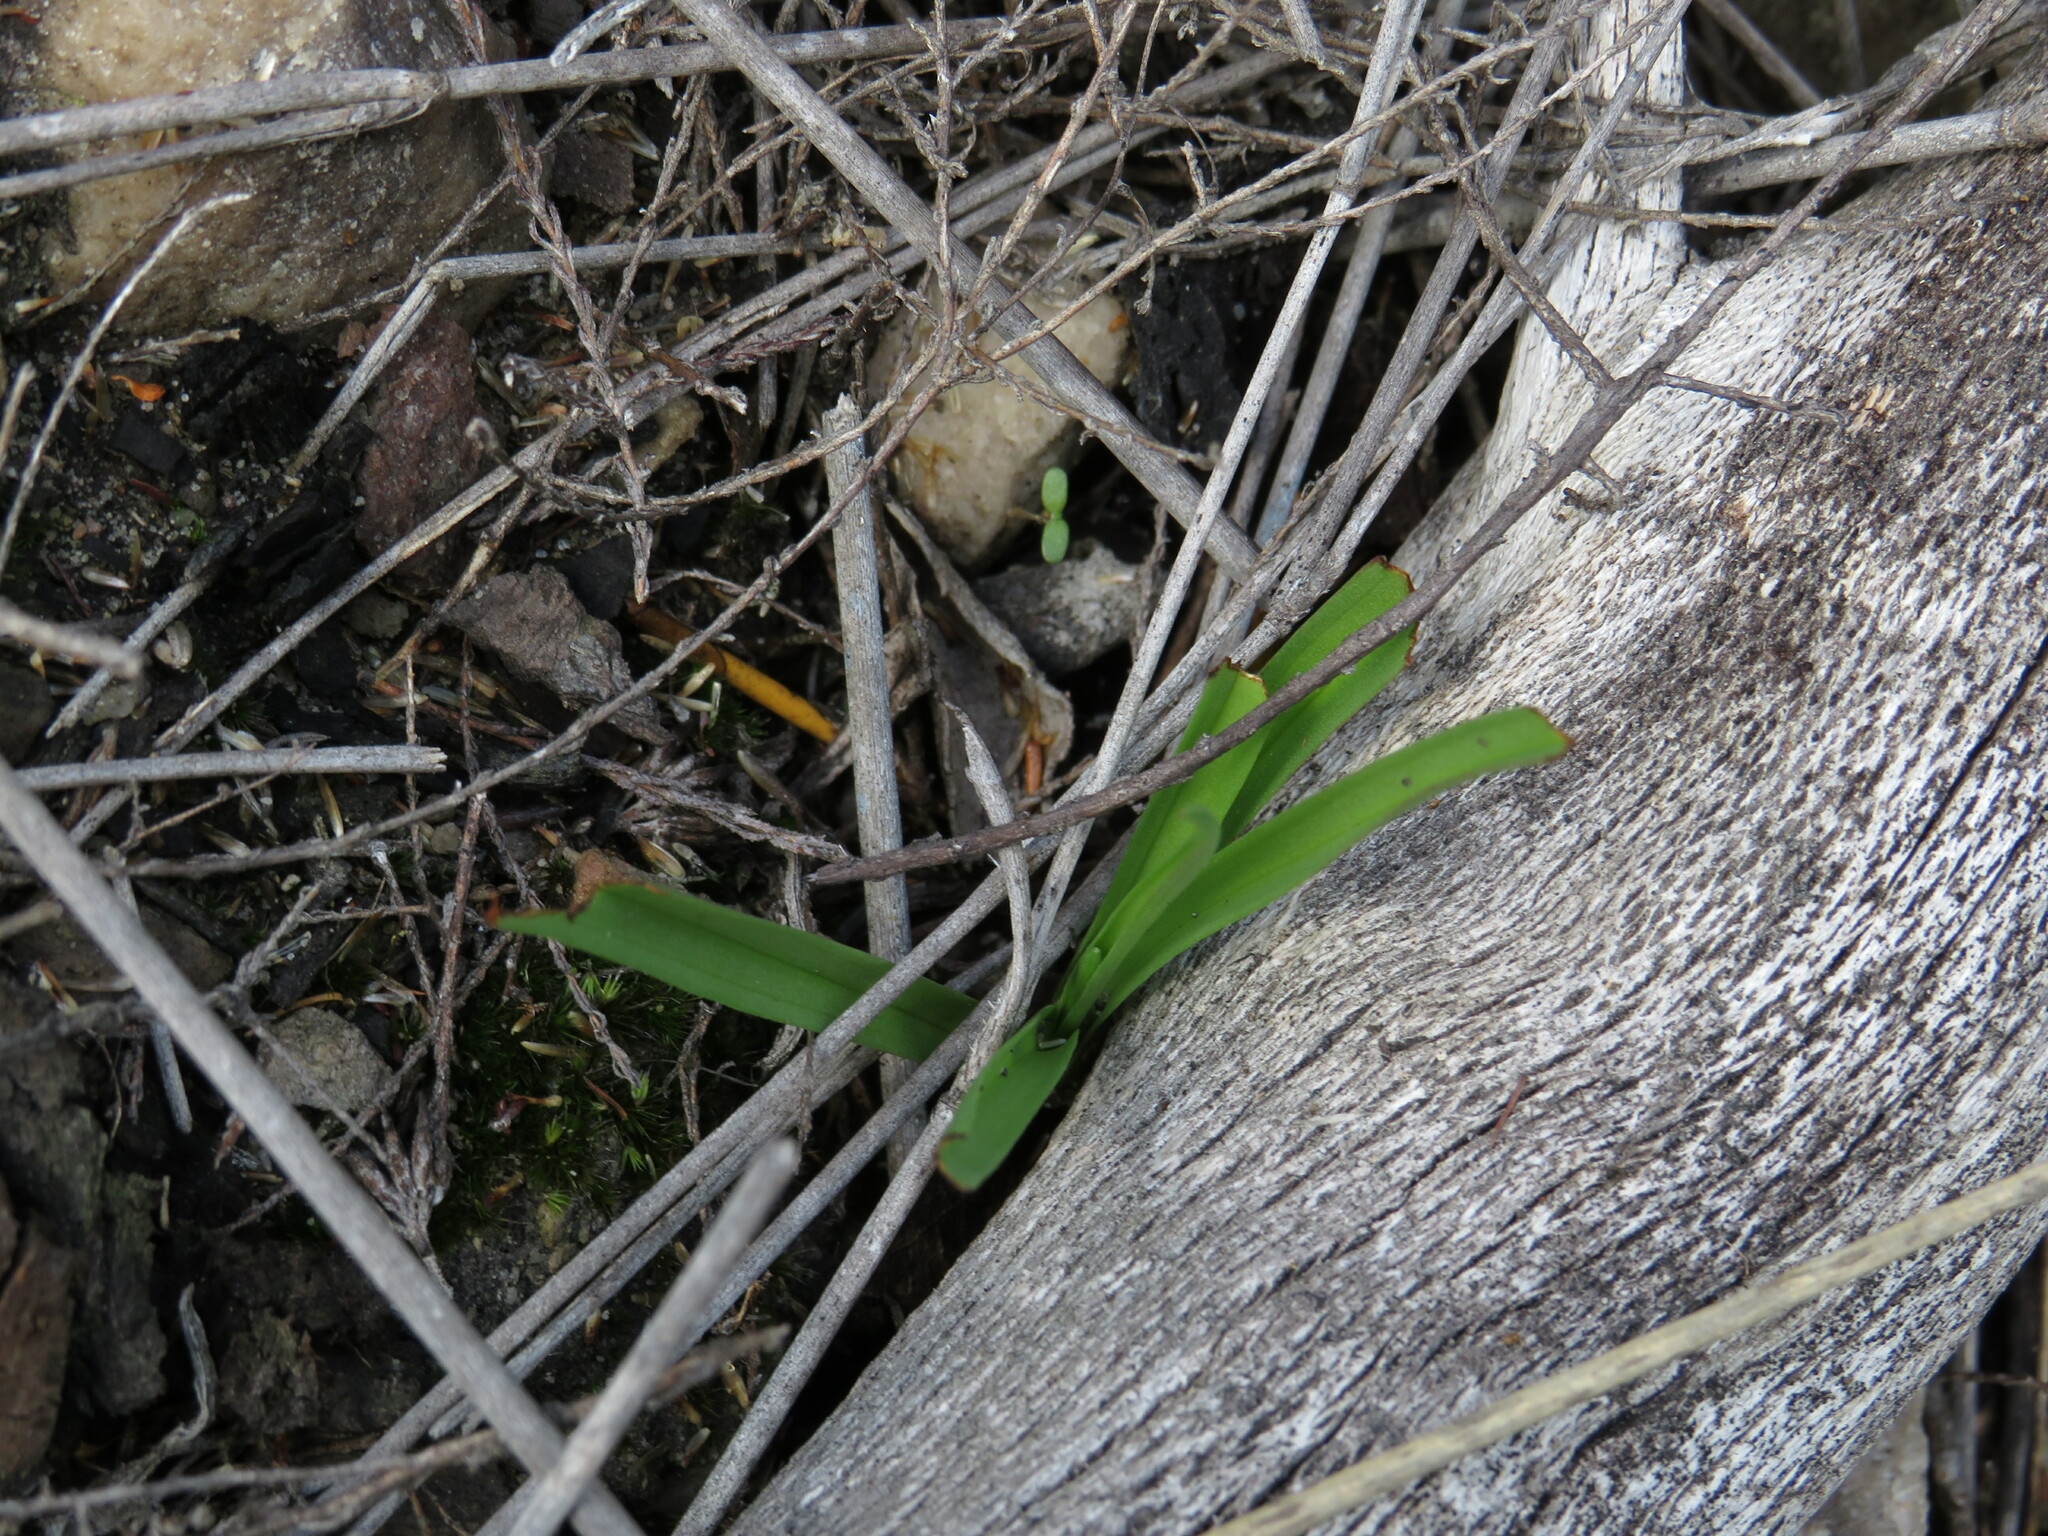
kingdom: Plantae
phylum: Tracheophyta
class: Liliopsida
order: Asparagales
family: Orchidaceae
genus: Disa
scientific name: Disa bracteata
